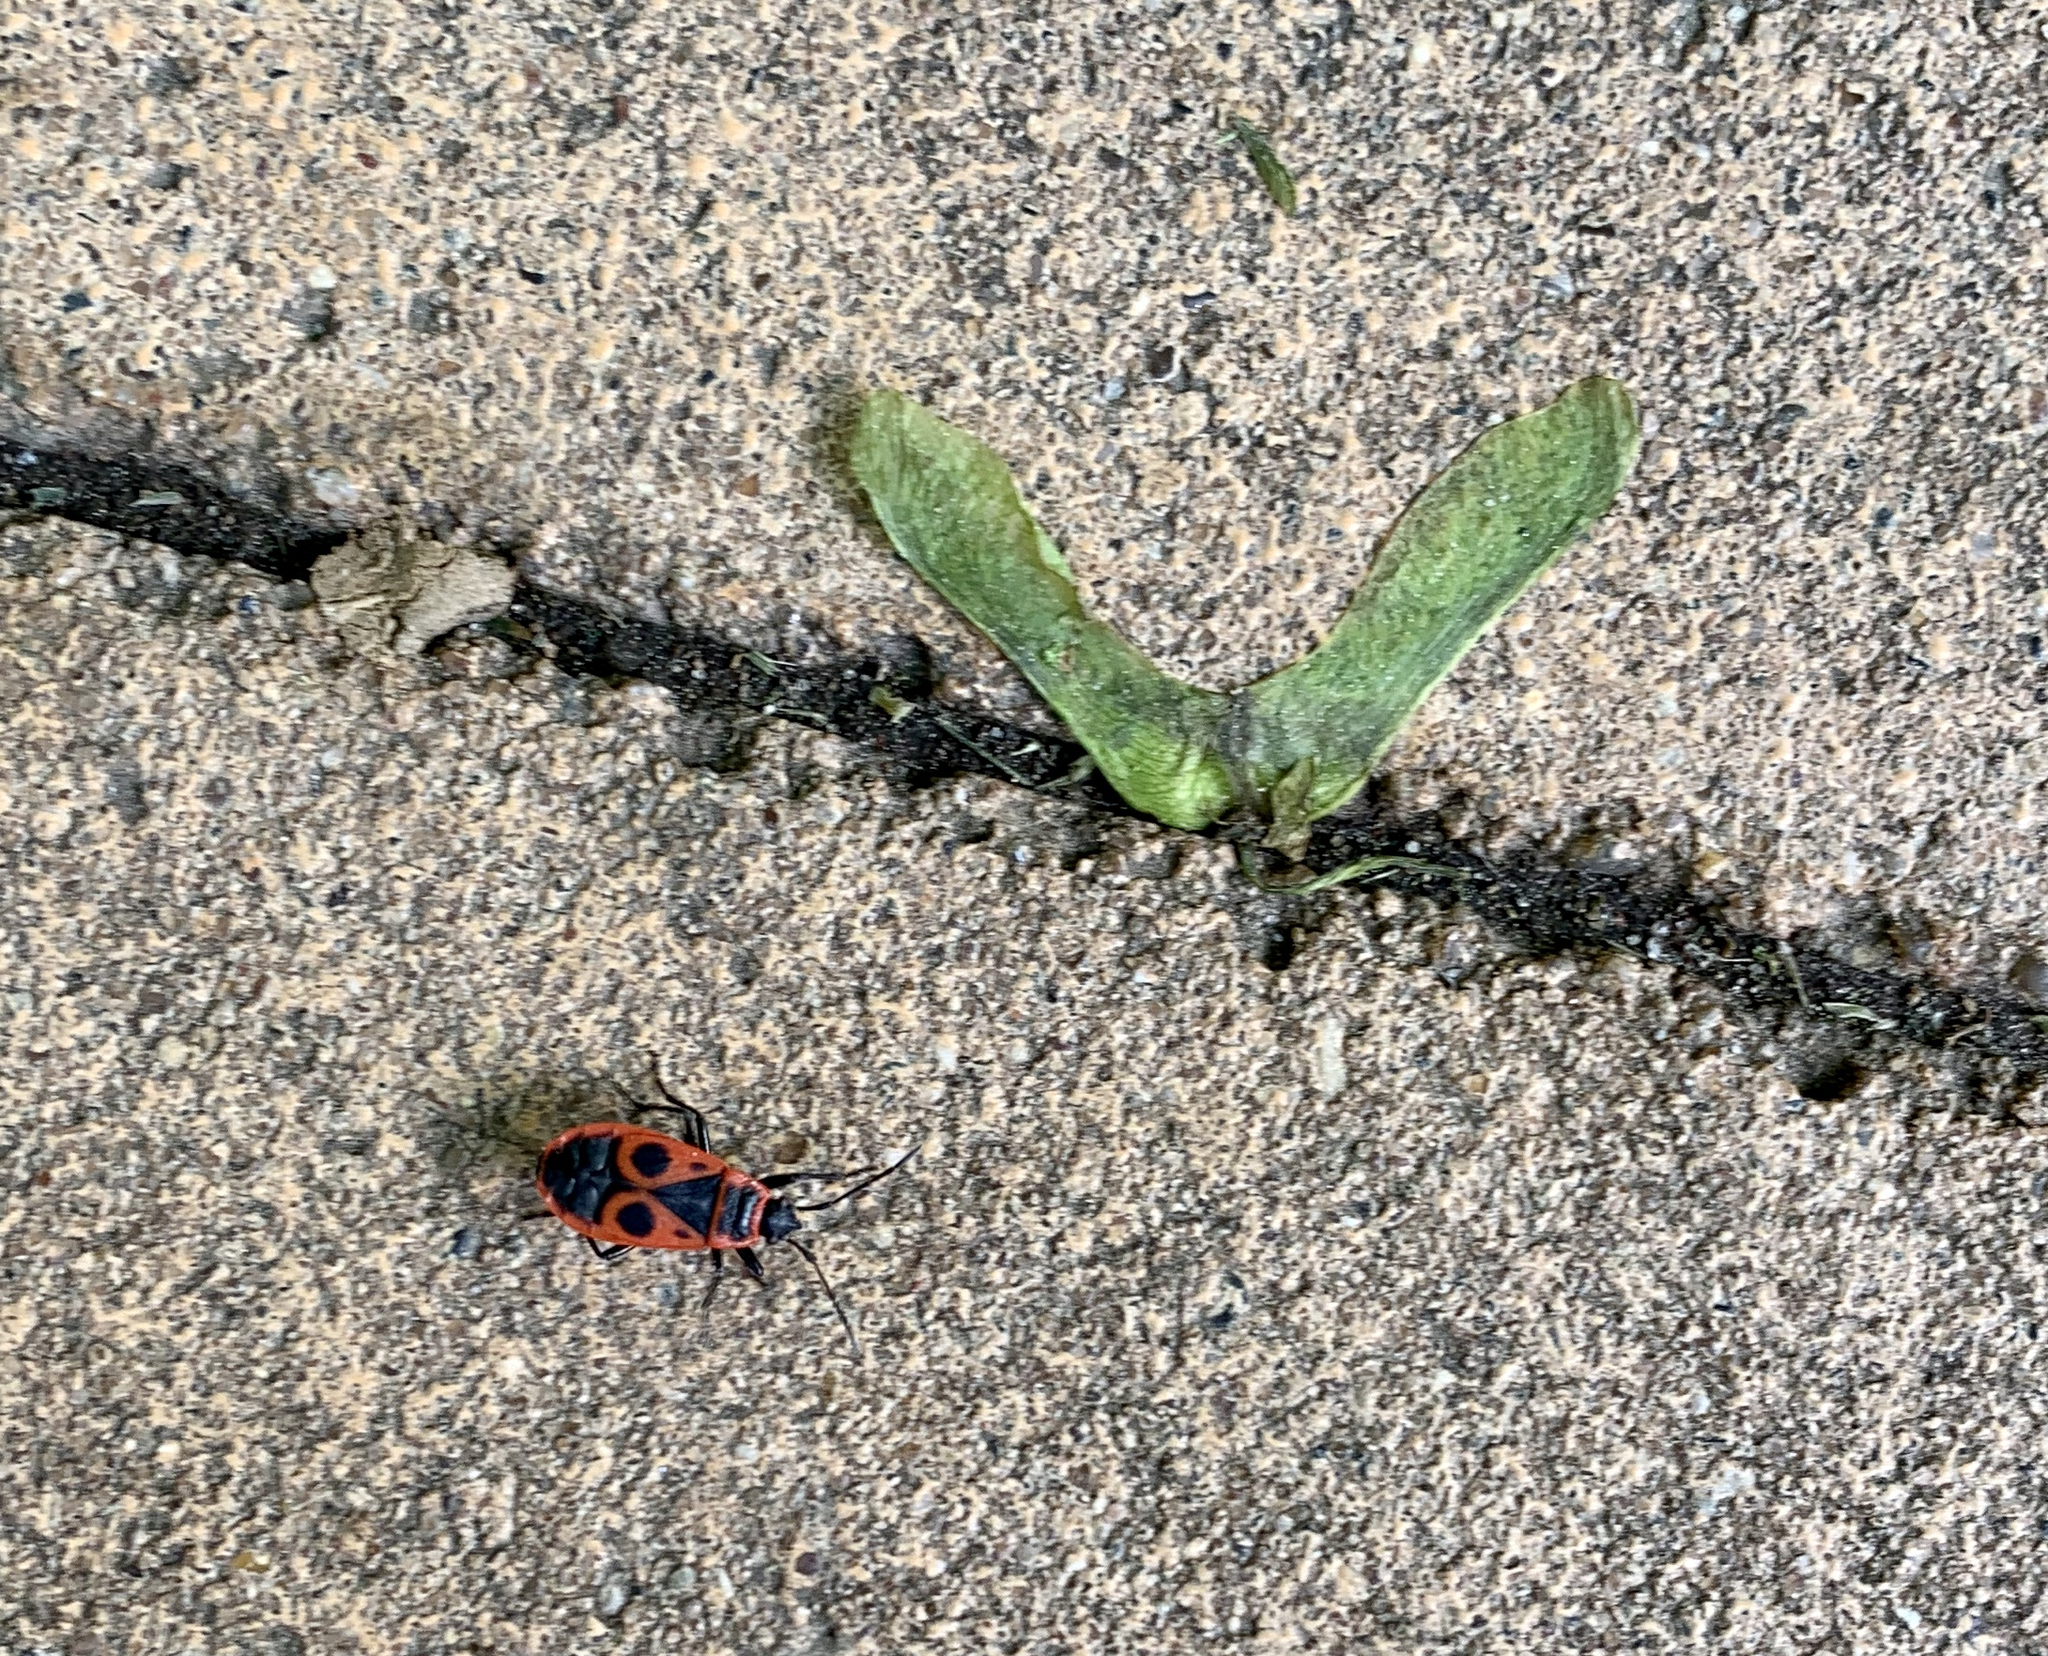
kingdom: Animalia
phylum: Arthropoda
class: Insecta
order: Hemiptera
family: Pyrrhocoridae
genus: Pyrrhocoris
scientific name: Pyrrhocoris apterus
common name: Firebug
